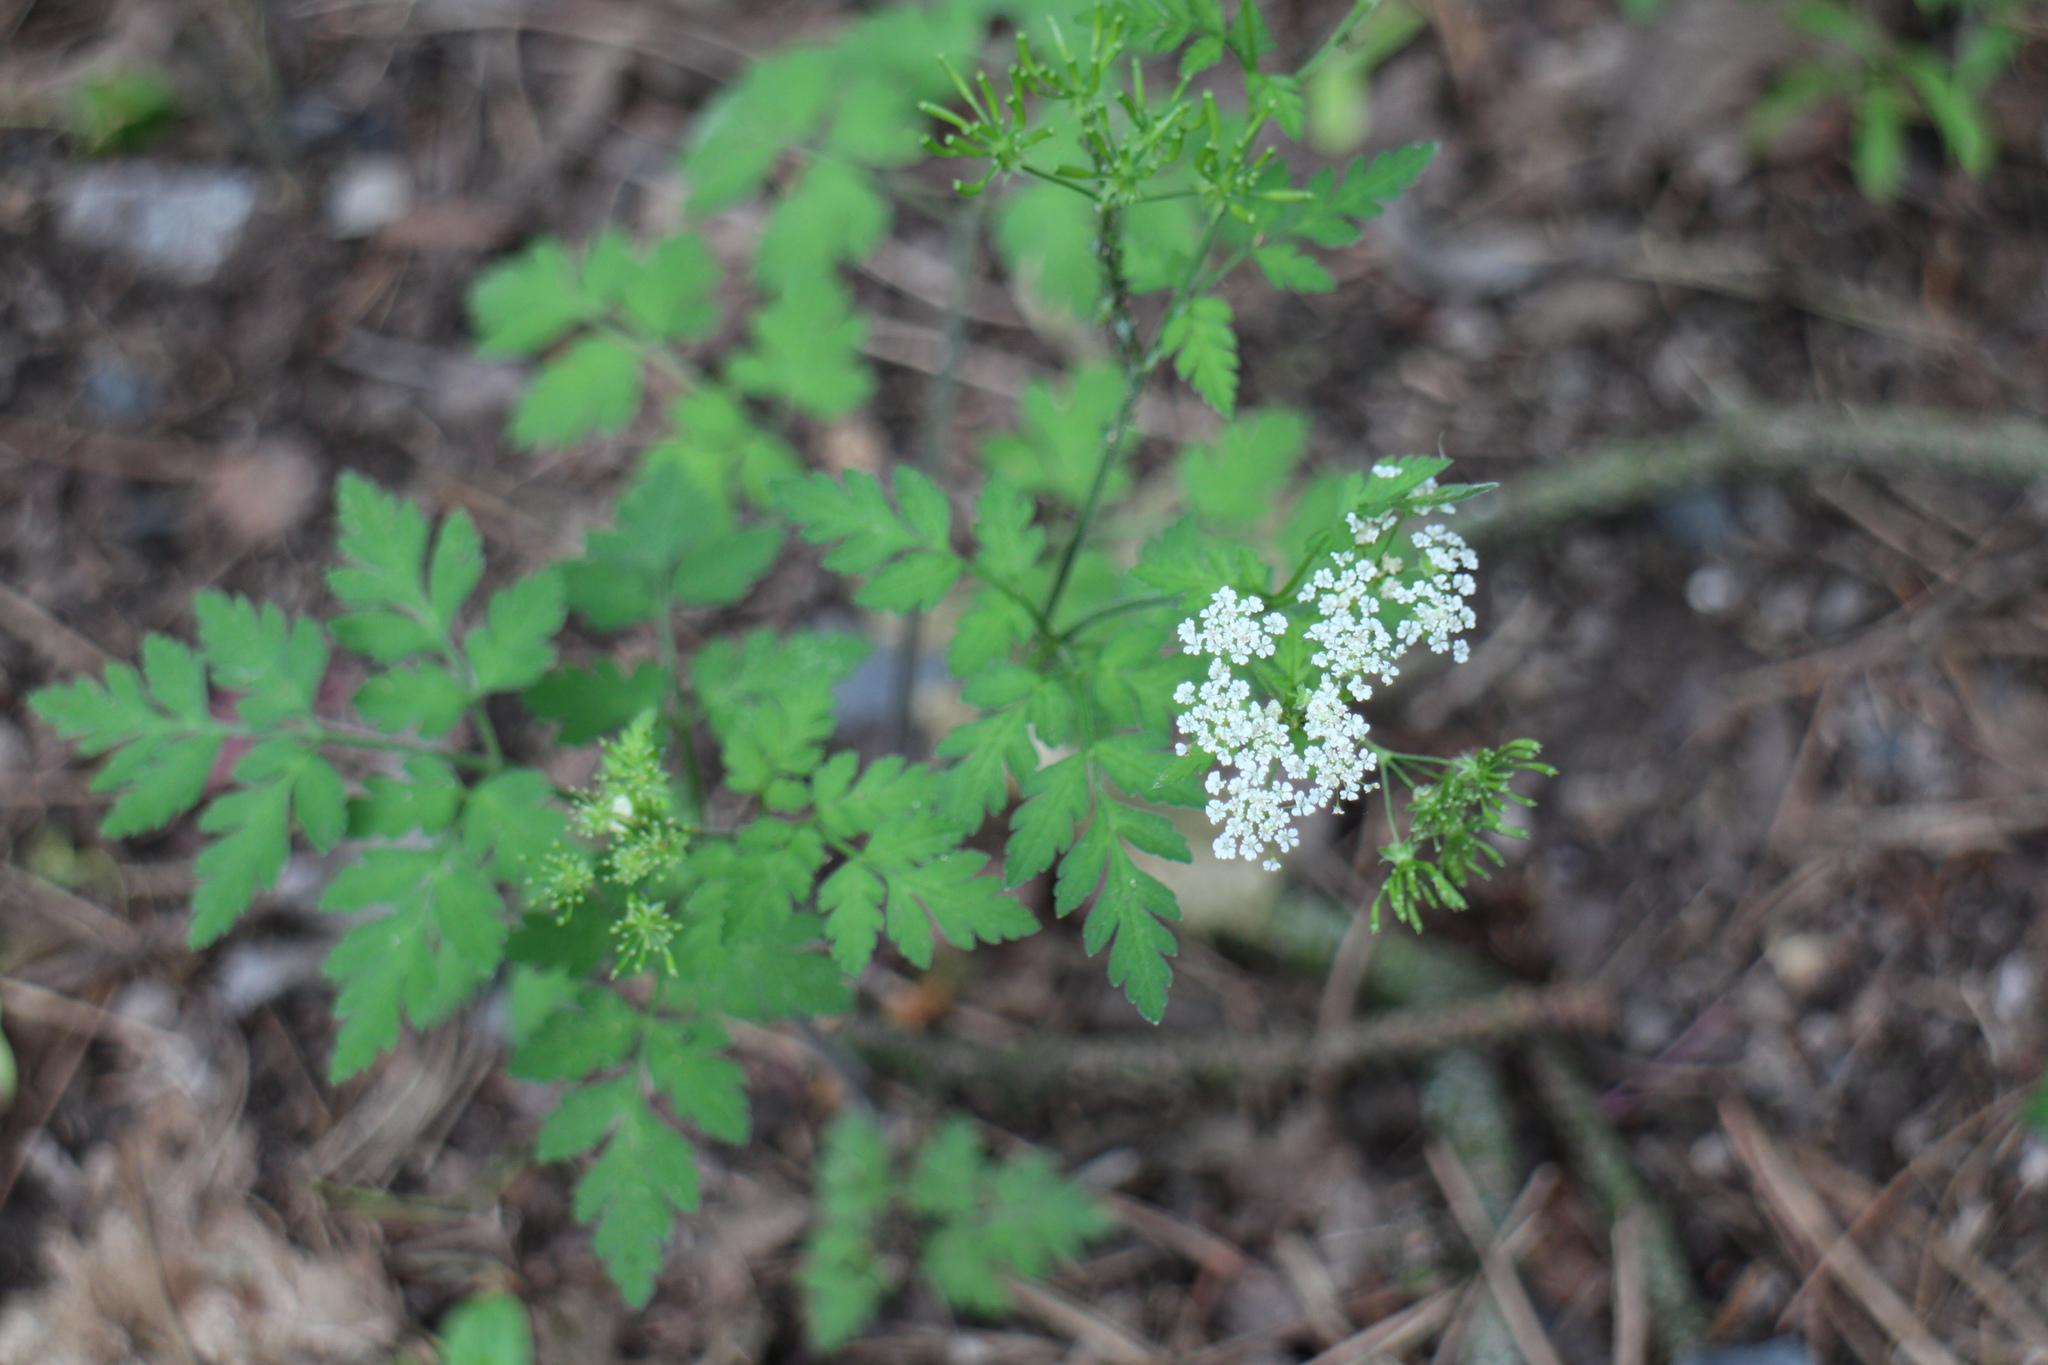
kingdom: Plantae
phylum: Tracheophyta
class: Magnoliopsida
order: Apiales
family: Apiaceae
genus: Chaerophyllum
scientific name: Chaerophyllum temulum
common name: Rough chervil
